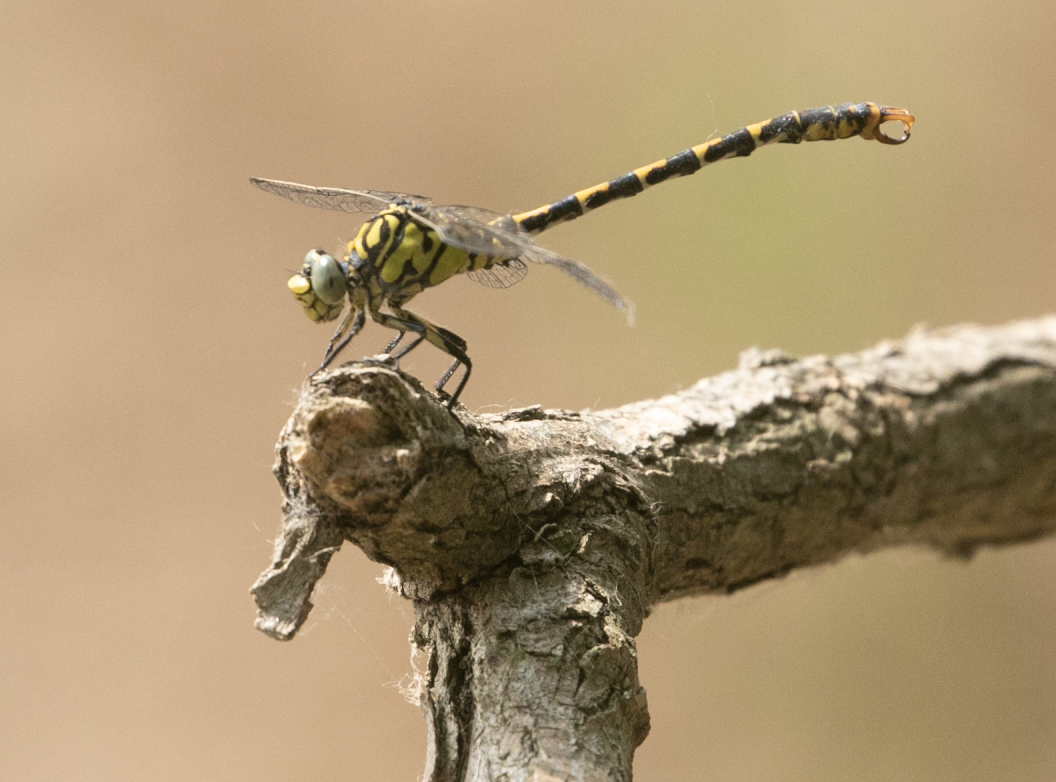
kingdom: Animalia
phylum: Arthropoda
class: Insecta
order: Odonata
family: Gomphidae
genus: Onychogomphus
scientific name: Onychogomphus forcipatus
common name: Small pincertail
